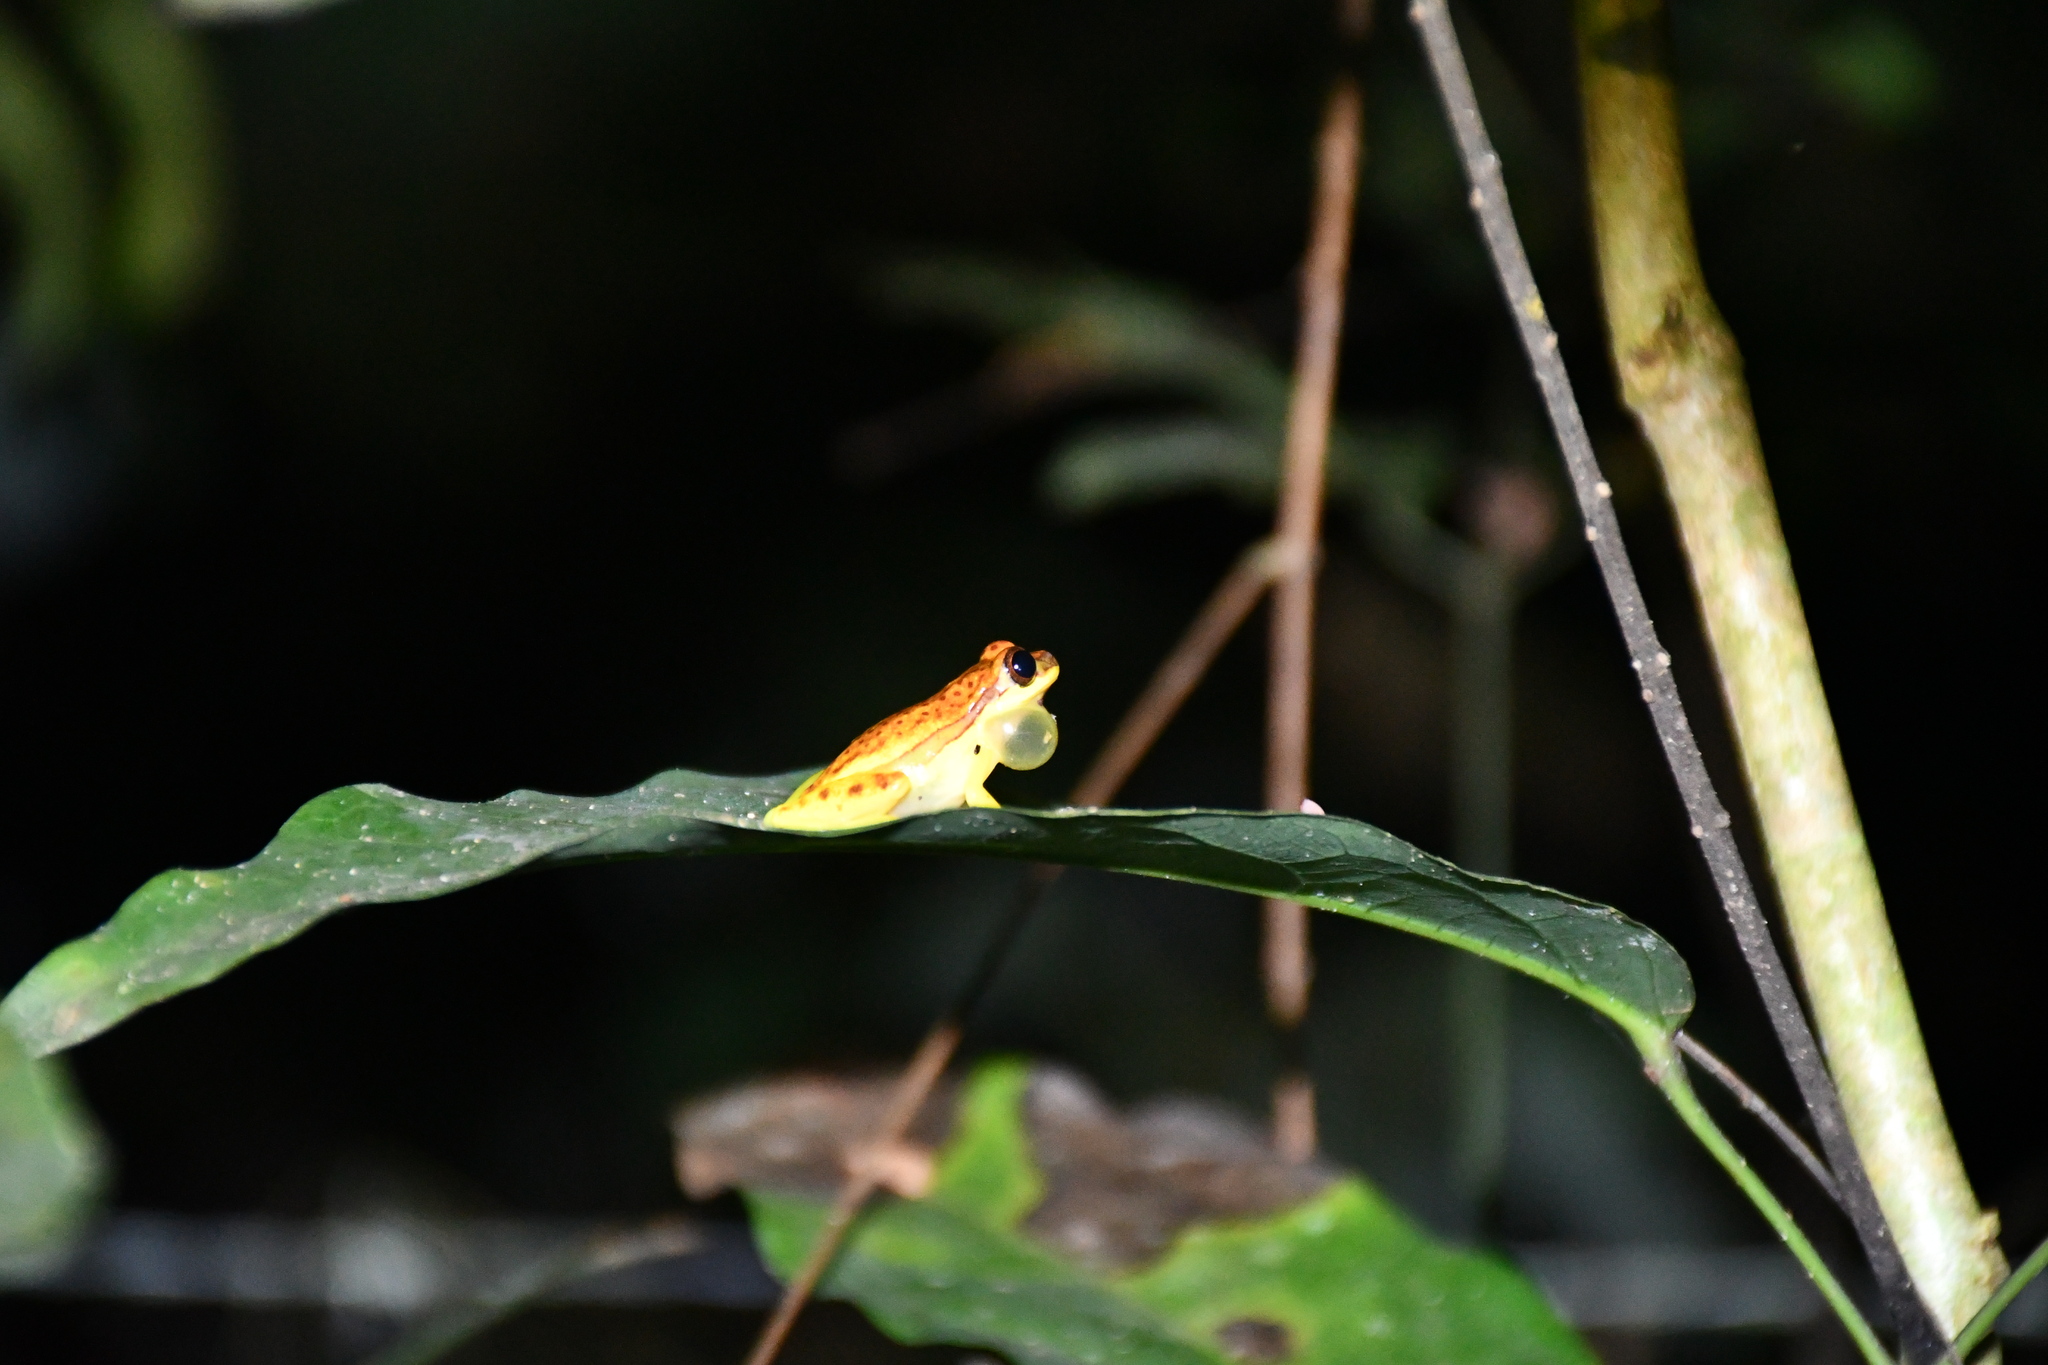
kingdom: Animalia
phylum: Chordata
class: Amphibia
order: Anura
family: Hylidae
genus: Dendropsophus
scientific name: Dendropsophus rhodopeplus
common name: Red-skirted treefrog
